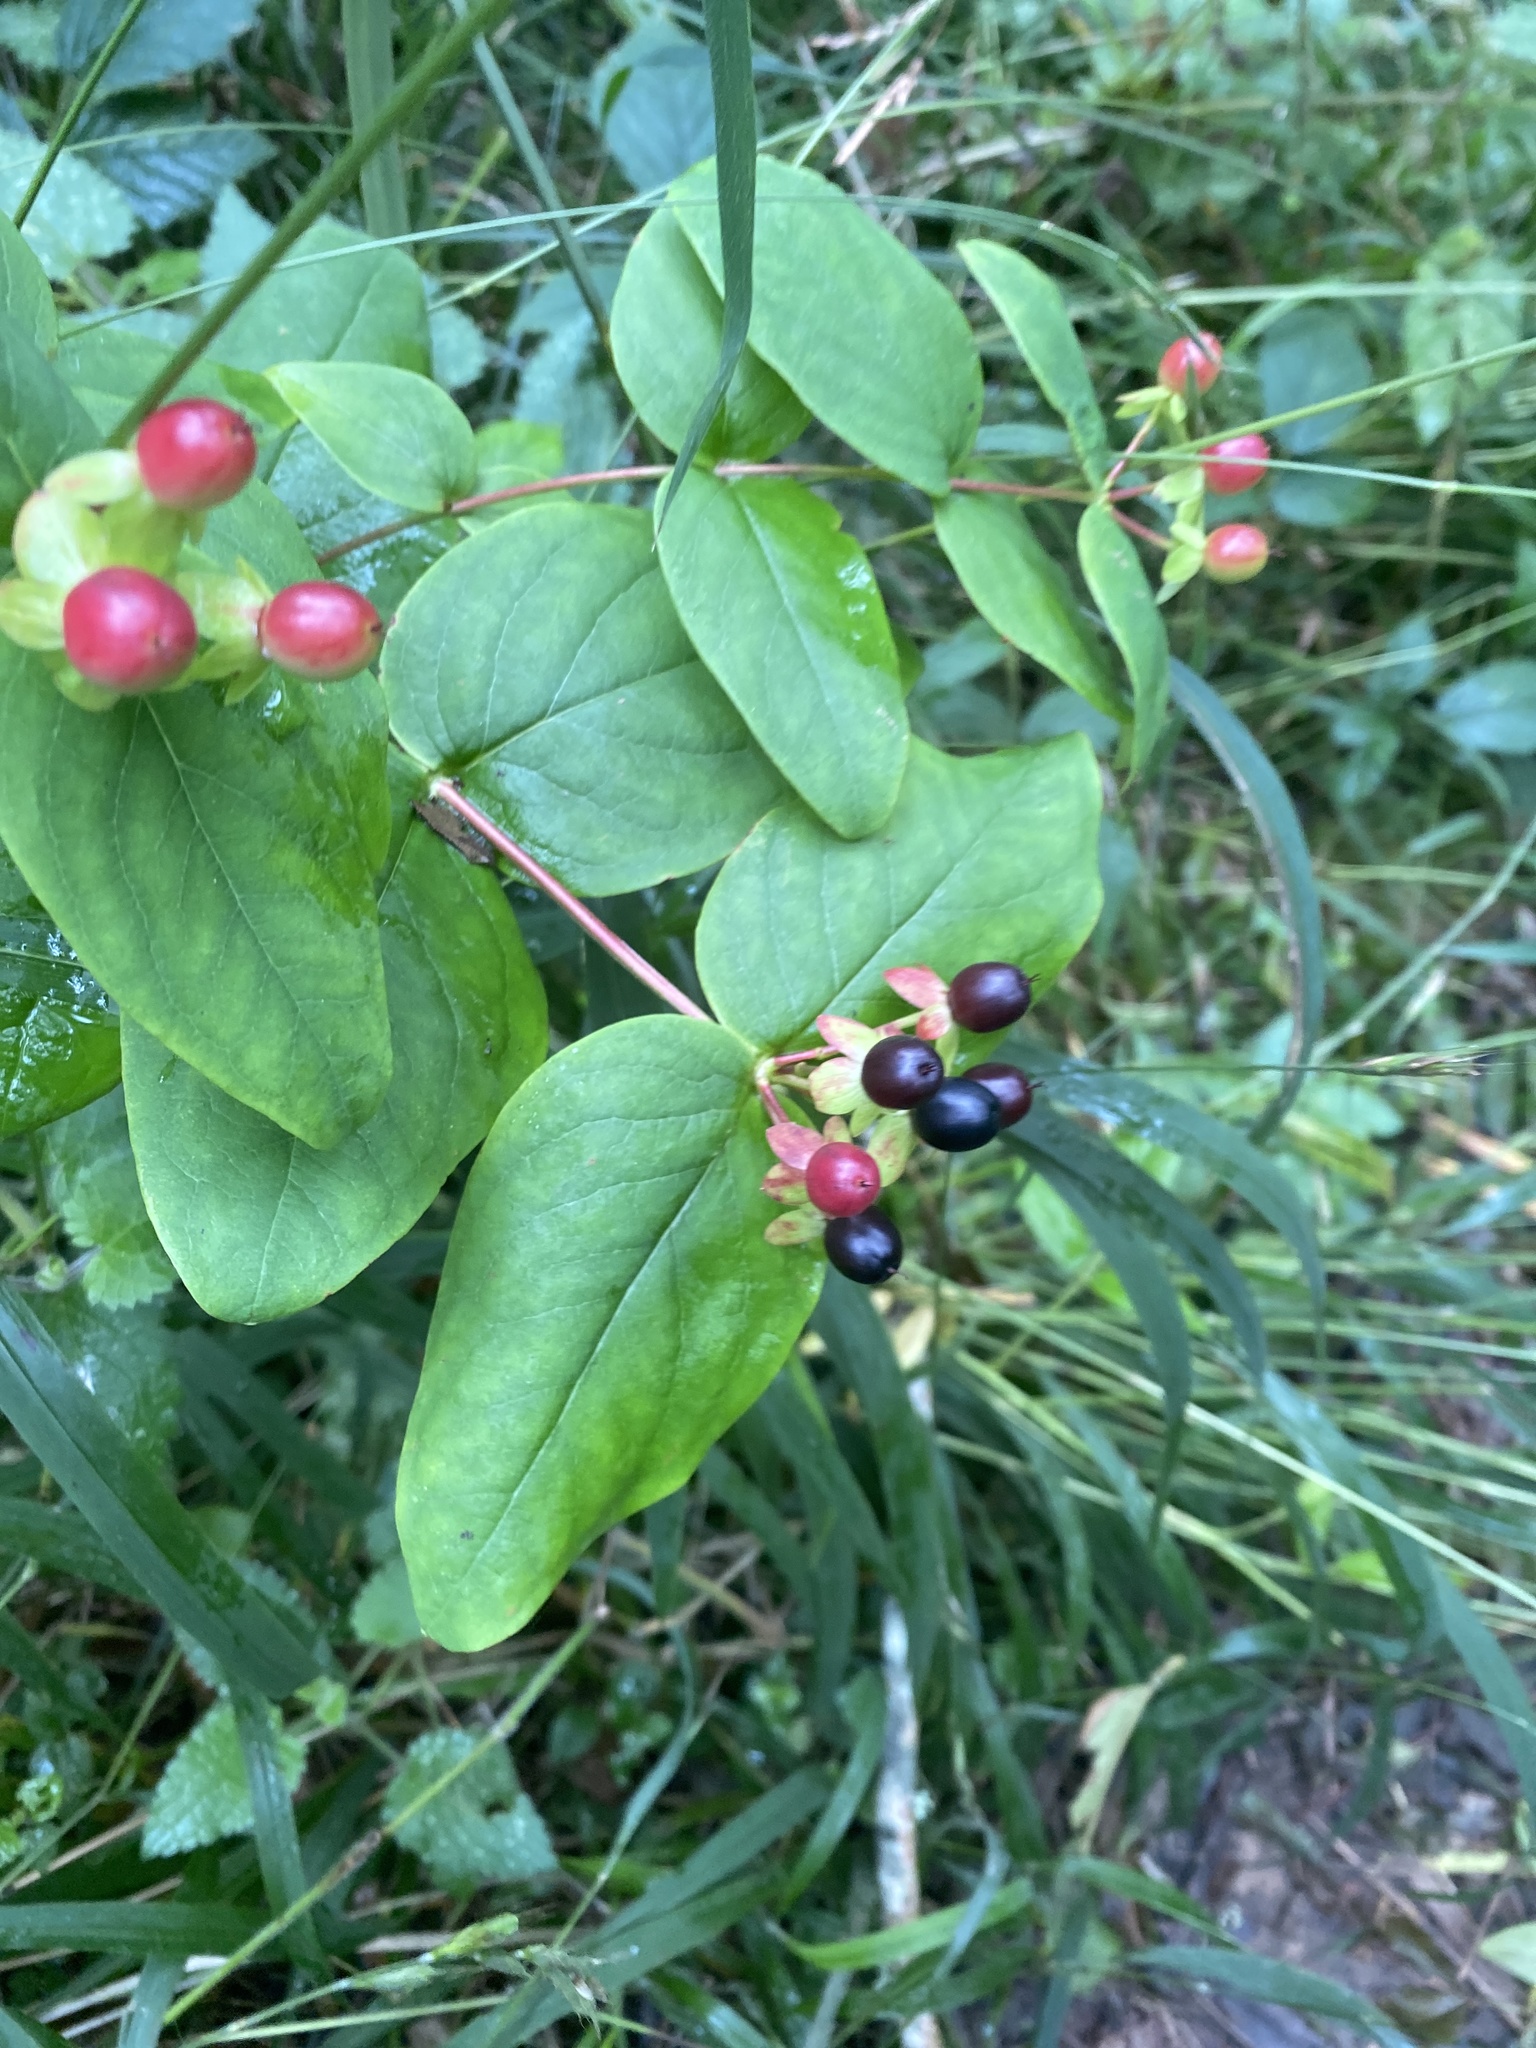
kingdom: Plantae
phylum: Tracheophyta
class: Magnoliopsida
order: Malpighiales
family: Hypericaceae
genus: Hypericum
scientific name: Hypericum androsaemum
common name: Sweet-amber
